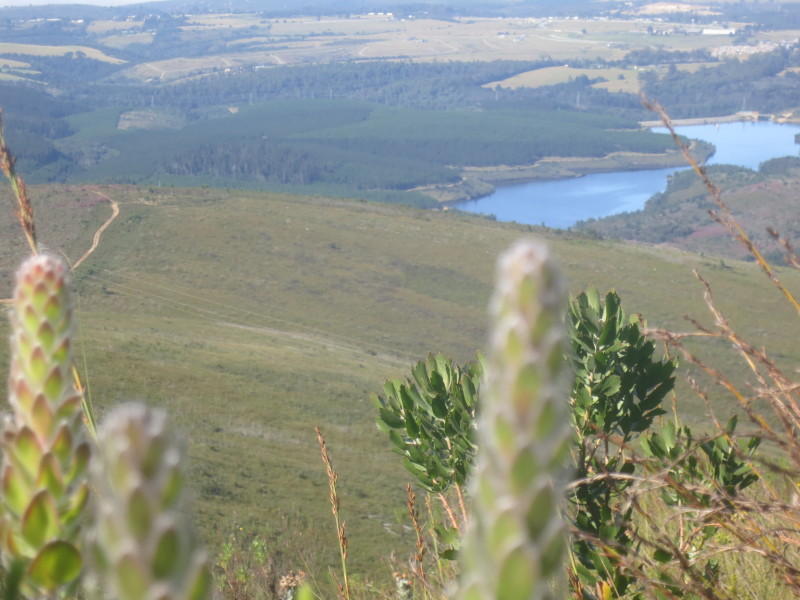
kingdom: Plantae
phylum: Tracheophyta
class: Magnoliopsida
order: Proteales
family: Proteaceae
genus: Mimetes
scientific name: Mimetes pauciflora
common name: Three-flowered pagoda
